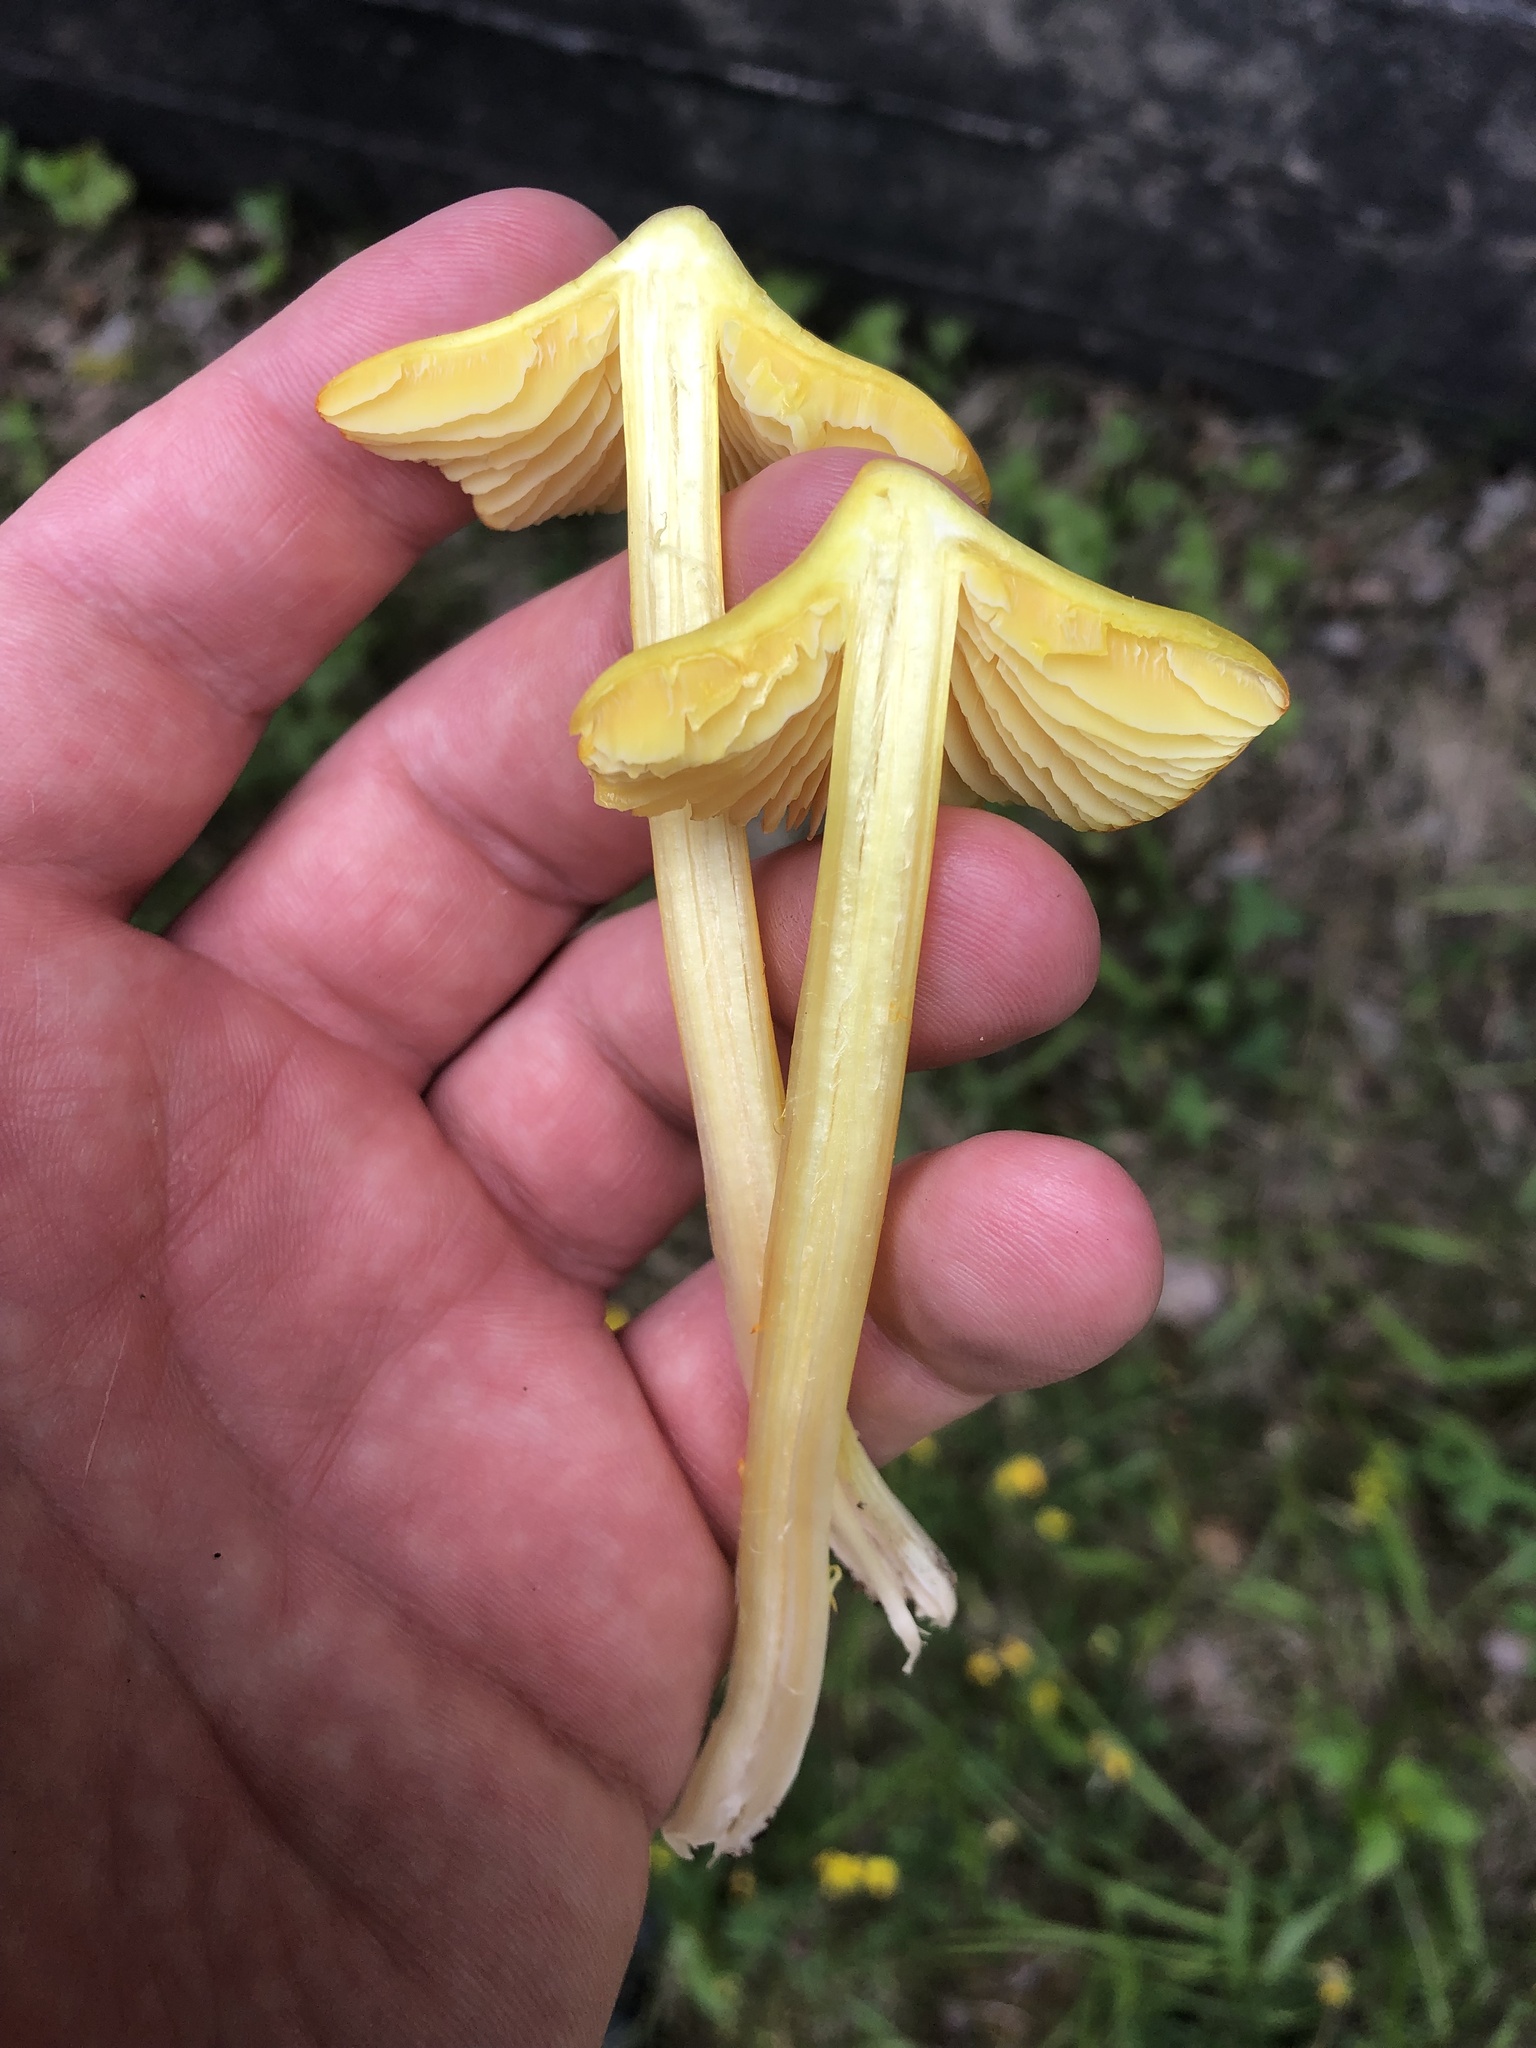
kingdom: Fungi
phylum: Basidiomycota
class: Agaricomycetes
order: Agaricales
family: Hygrophoraceae
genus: Hygrocybe
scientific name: Hygrocybe acutoconica
